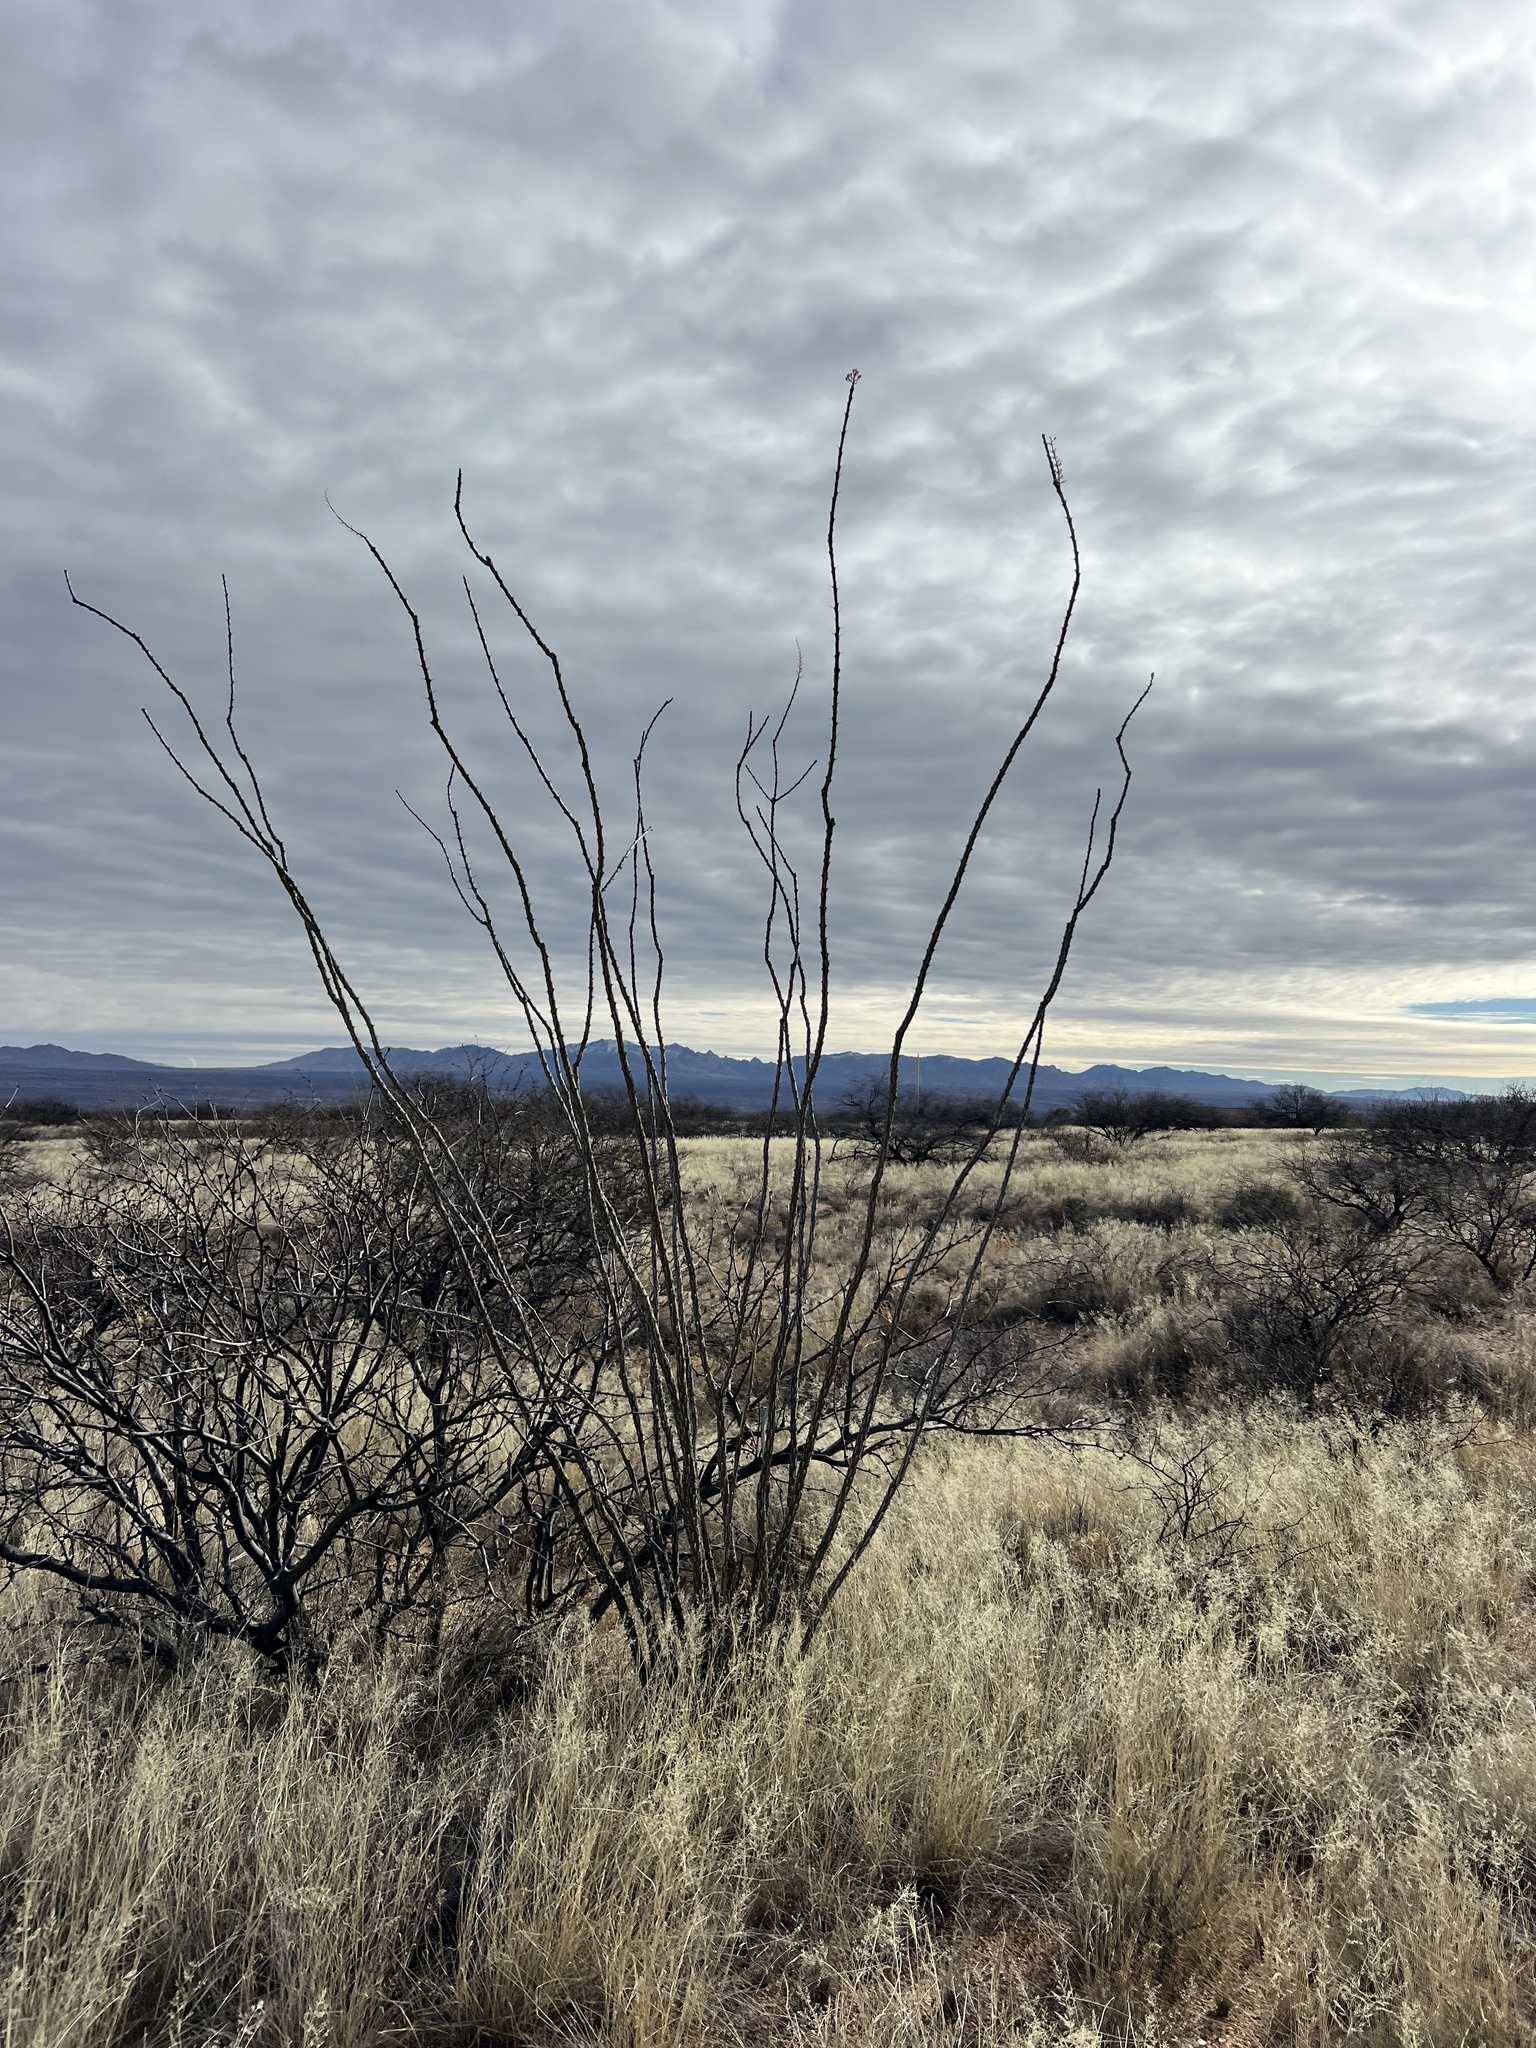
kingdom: Plantae
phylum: Tracheophyta
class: Magnoliopsida
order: Ericales
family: Fouquieriaceae
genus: Fouquieria
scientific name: Fouquieria splendens
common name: Vine-cactus
